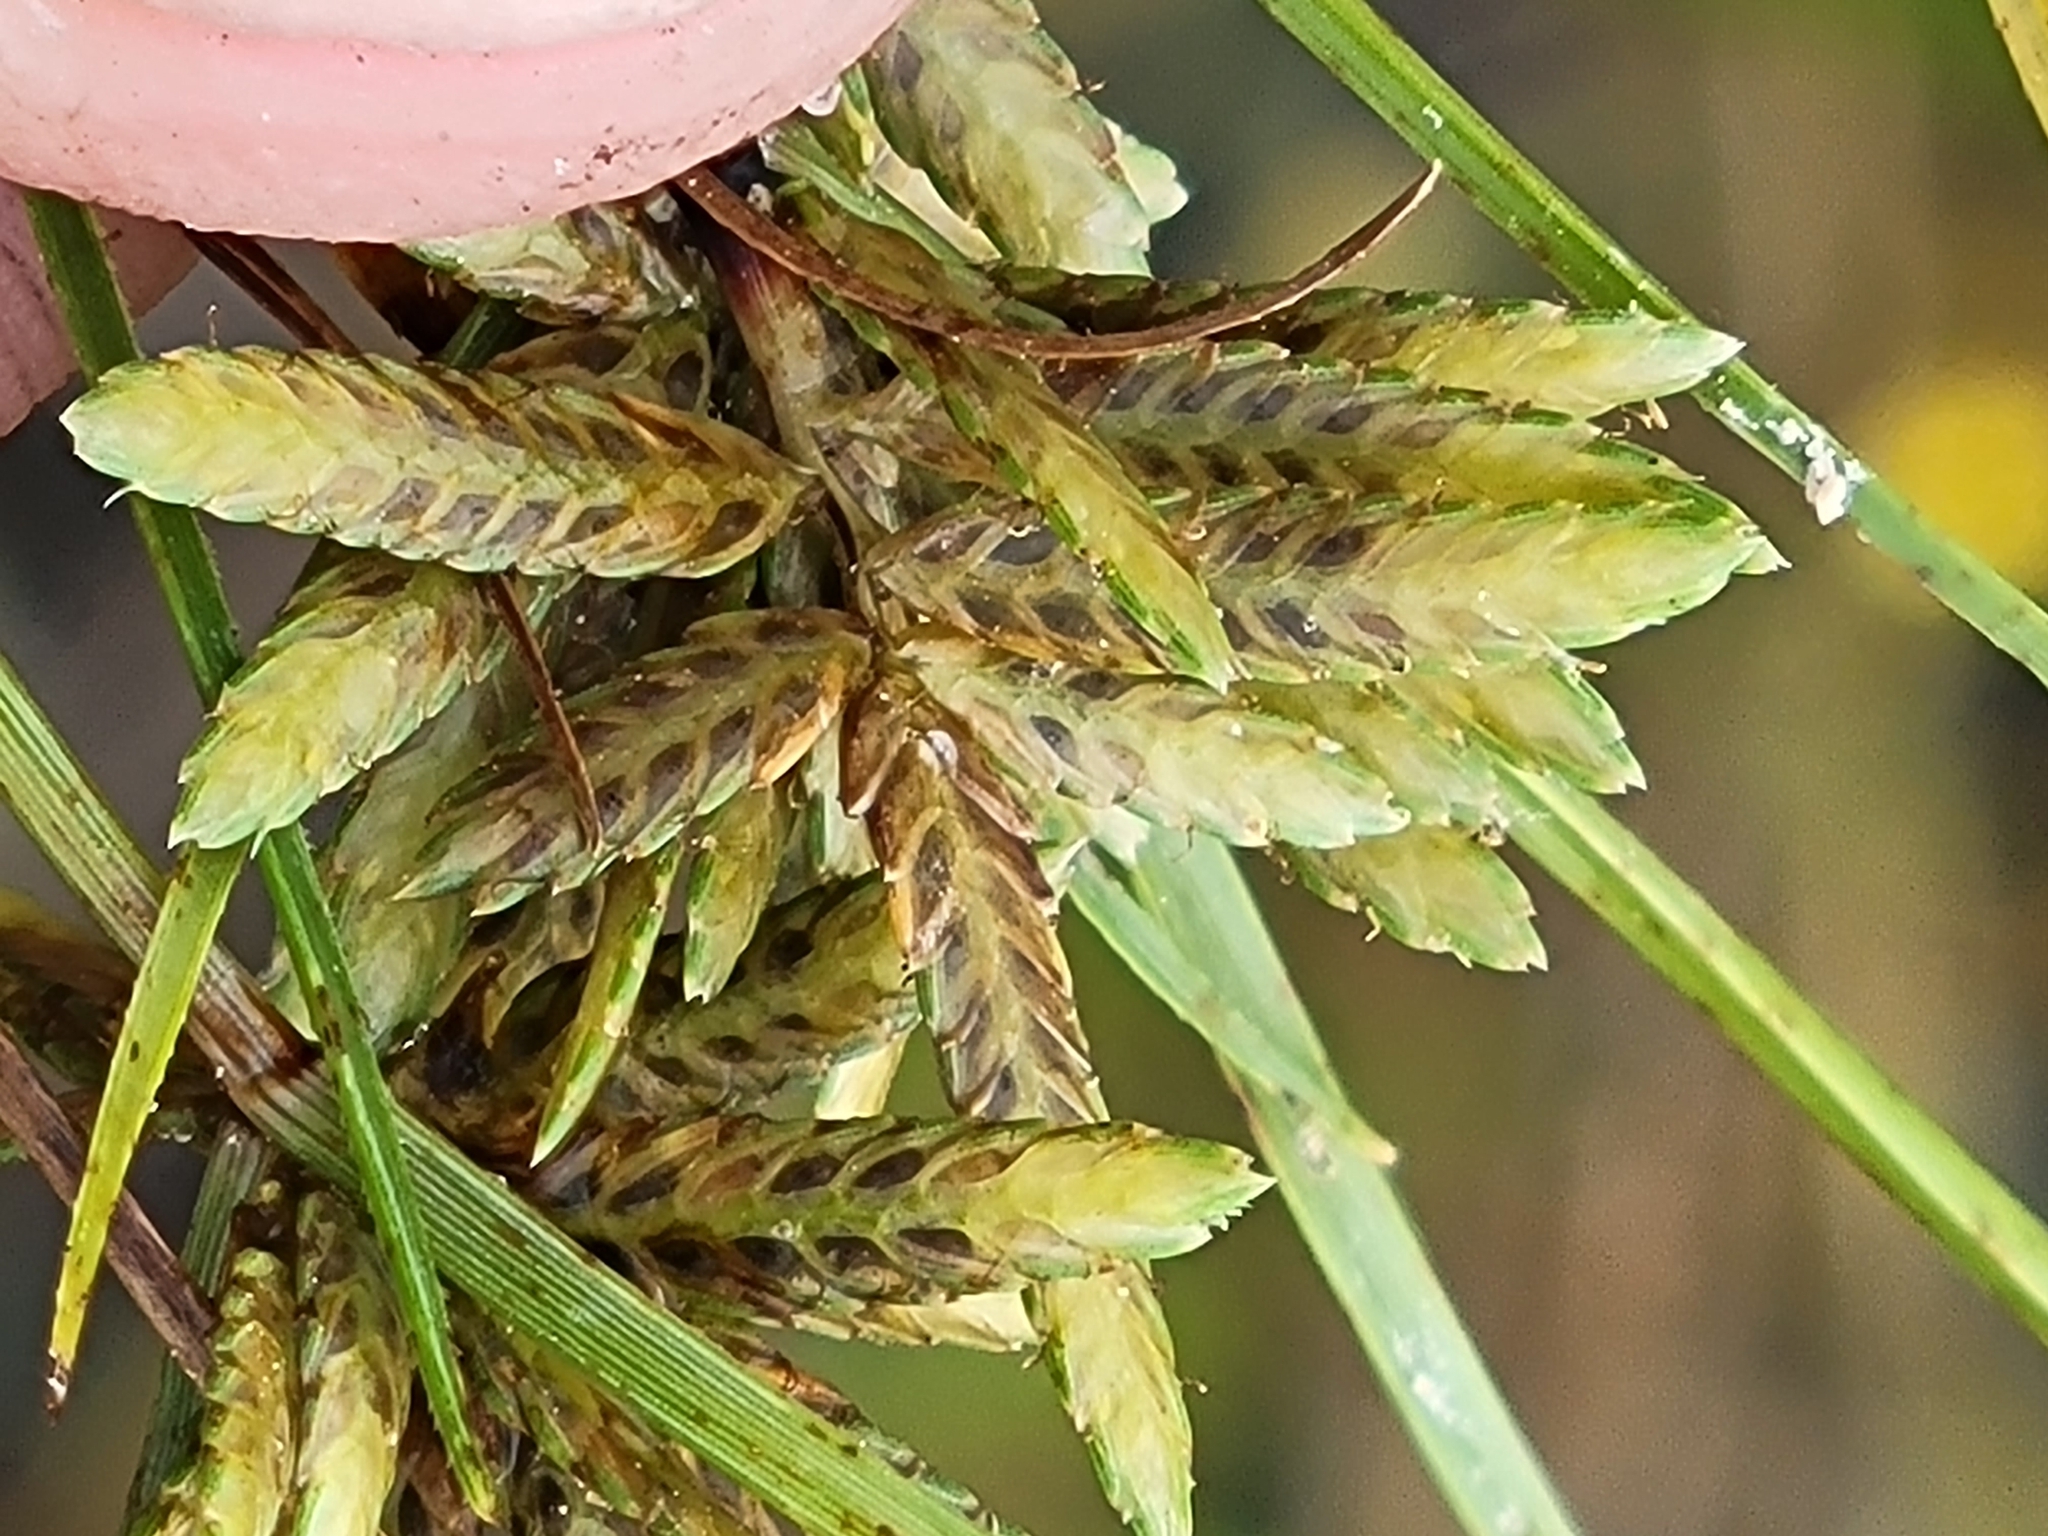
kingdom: Plantae
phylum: Tracheophyta
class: Liliopsida
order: Poales
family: Cyperaceae
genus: Cyperus
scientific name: Cyperus flavescens
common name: Yellow galingale
